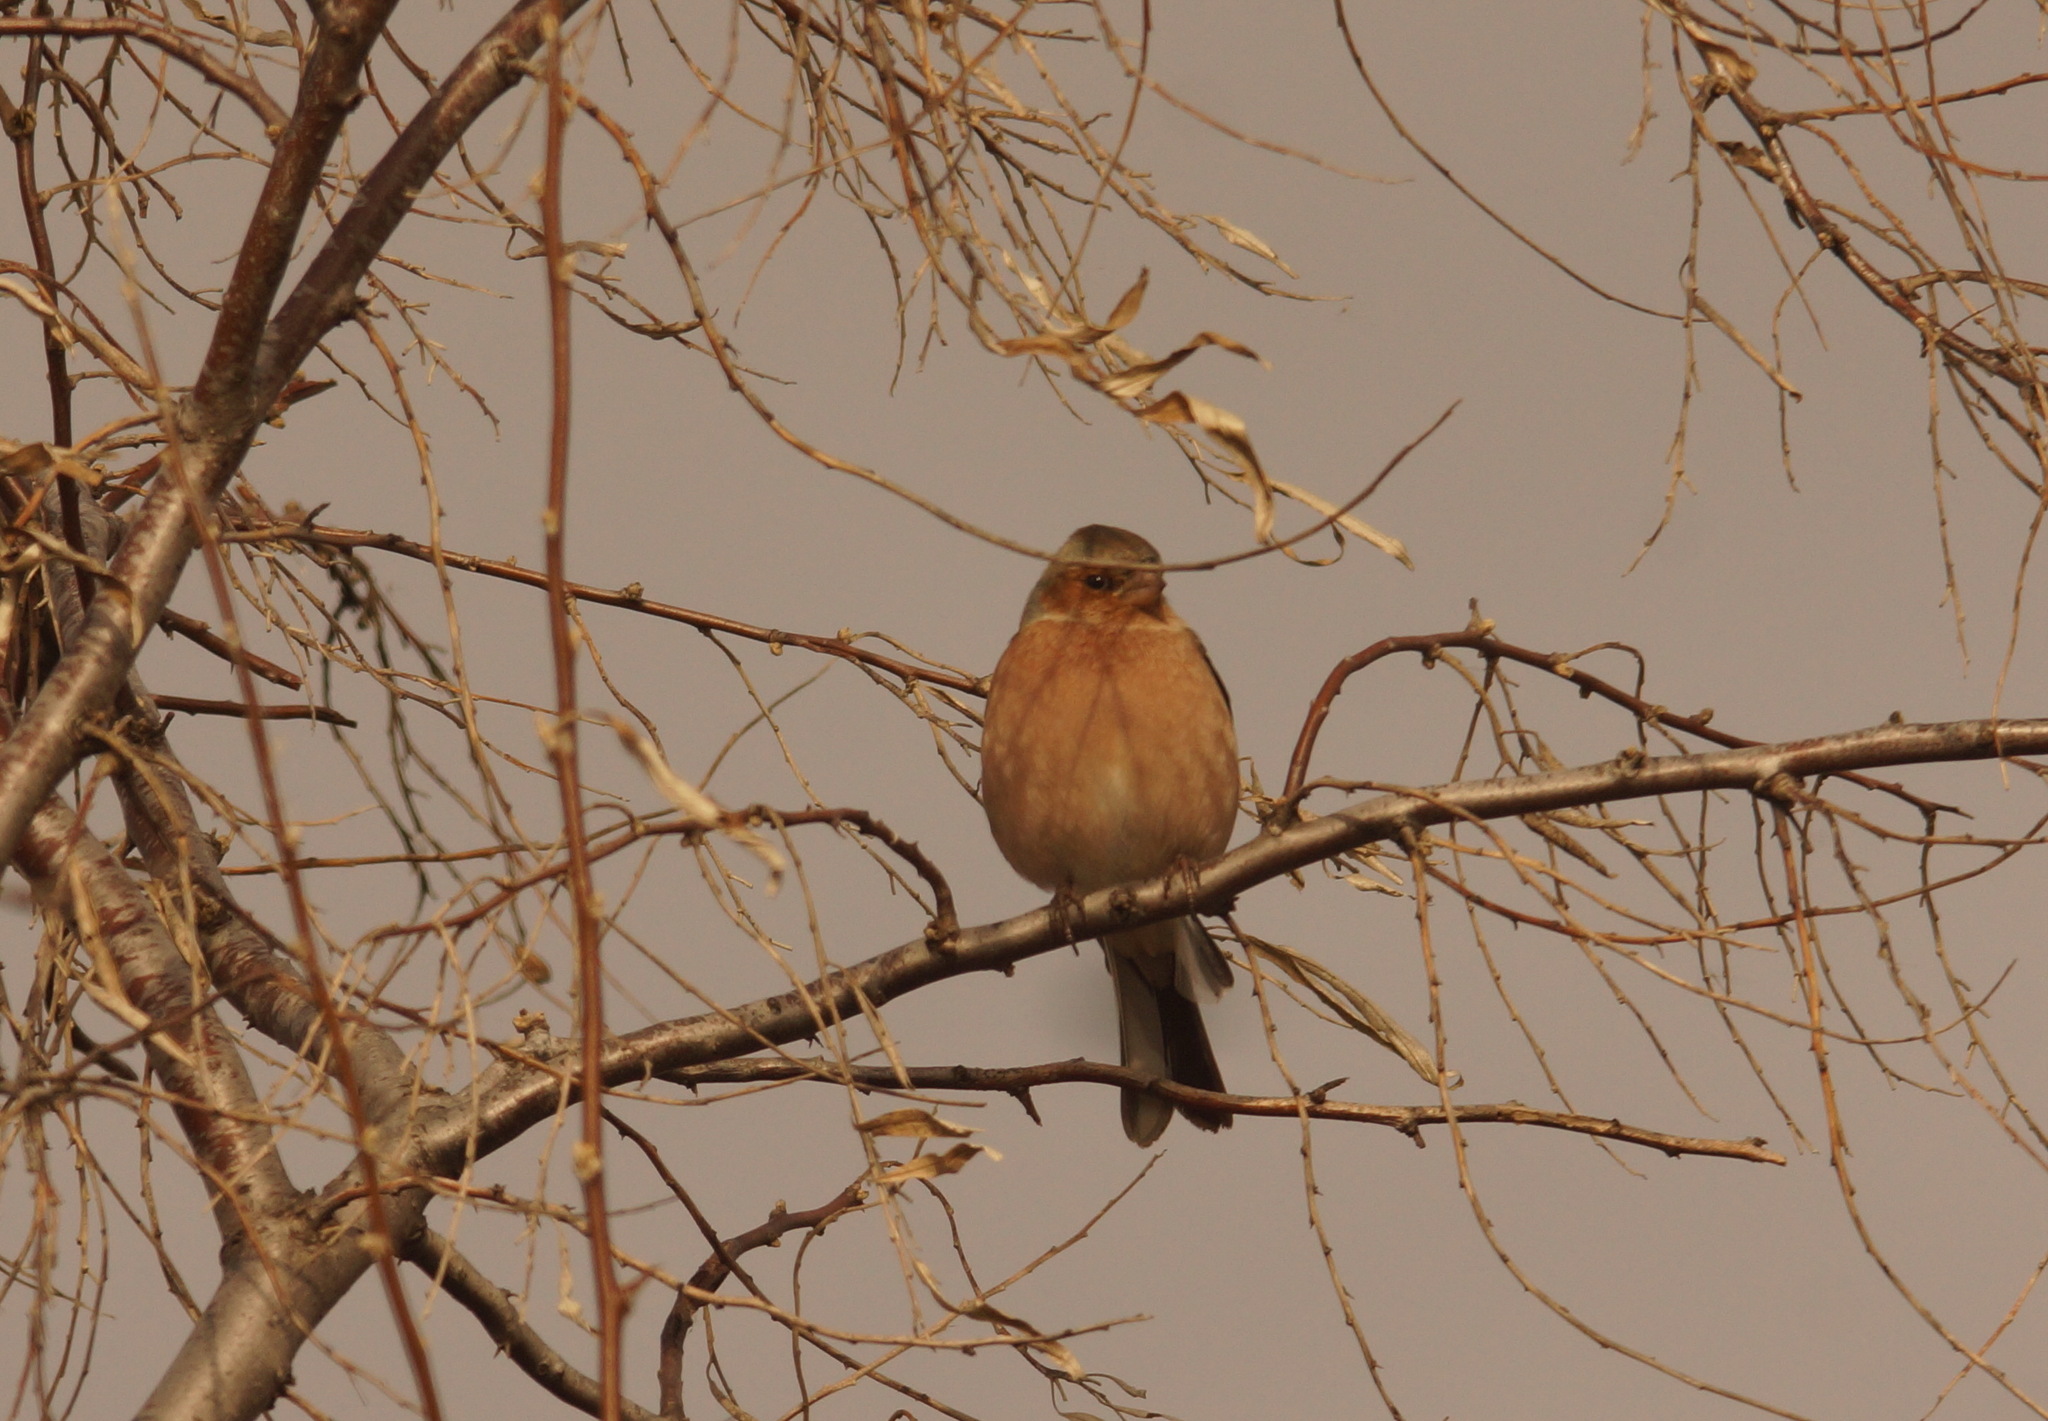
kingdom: Animalia
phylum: Chordata
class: Aves
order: Passeriformes
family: Fringillidae
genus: Fringilla
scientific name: Fringilla coelebs
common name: Common chaffinch
